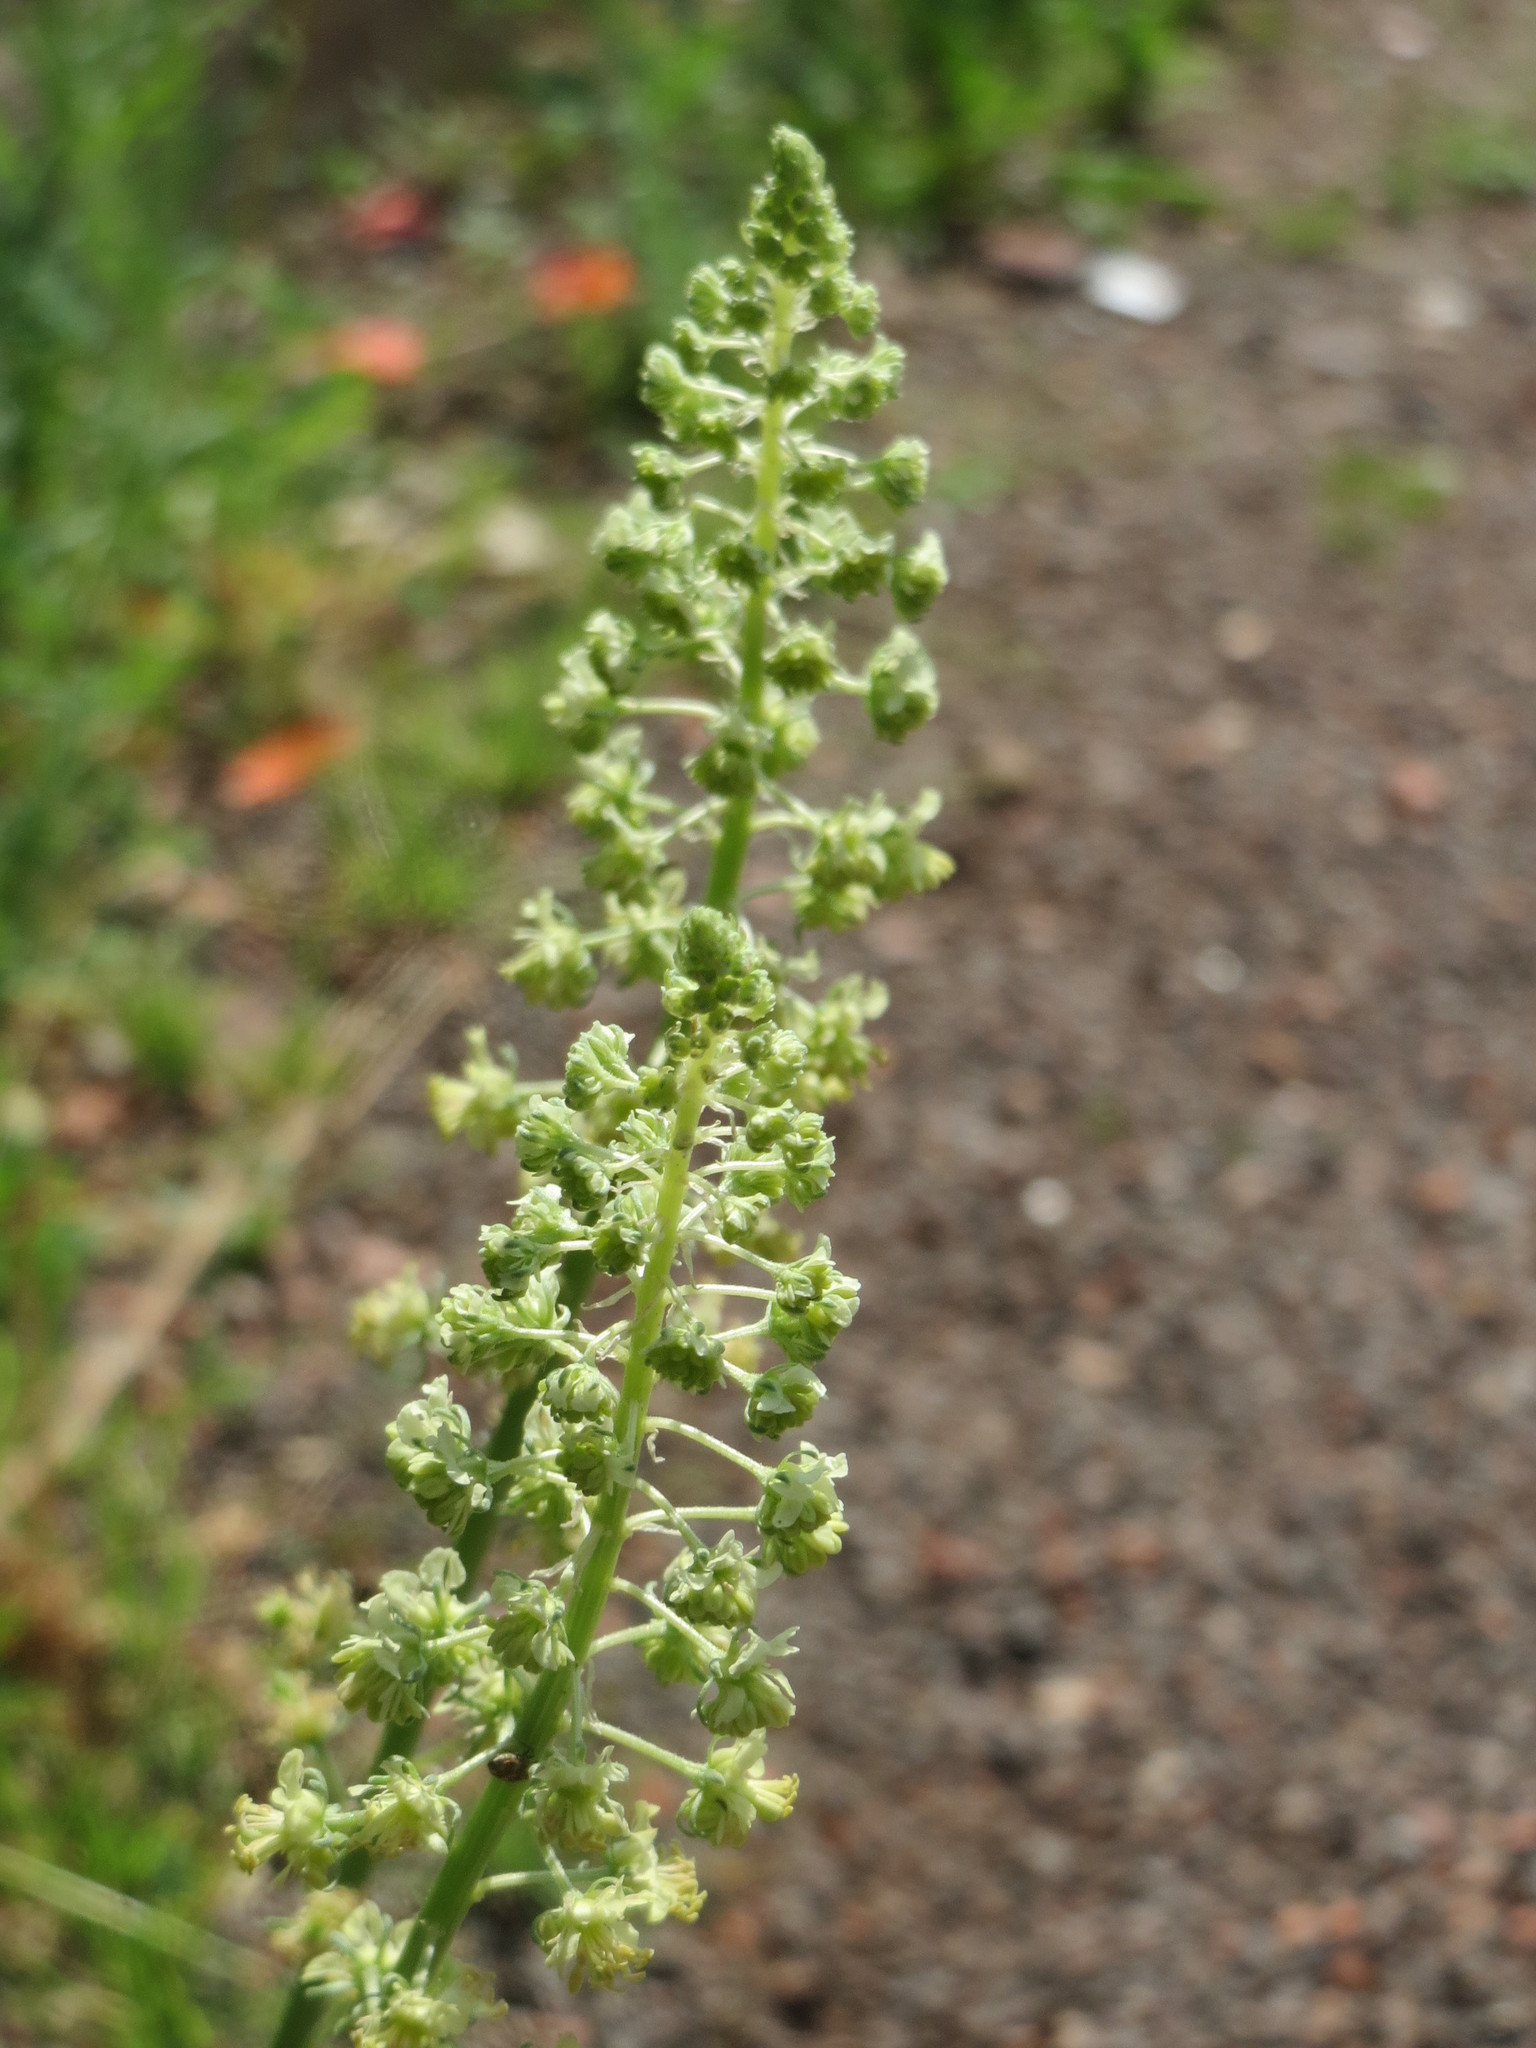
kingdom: Plantae
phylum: Tracheophyta
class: Magnoliopsida
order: Brassicales
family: Resedaceae
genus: Reseda
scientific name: Reseda lutea
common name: Wild mignonette
